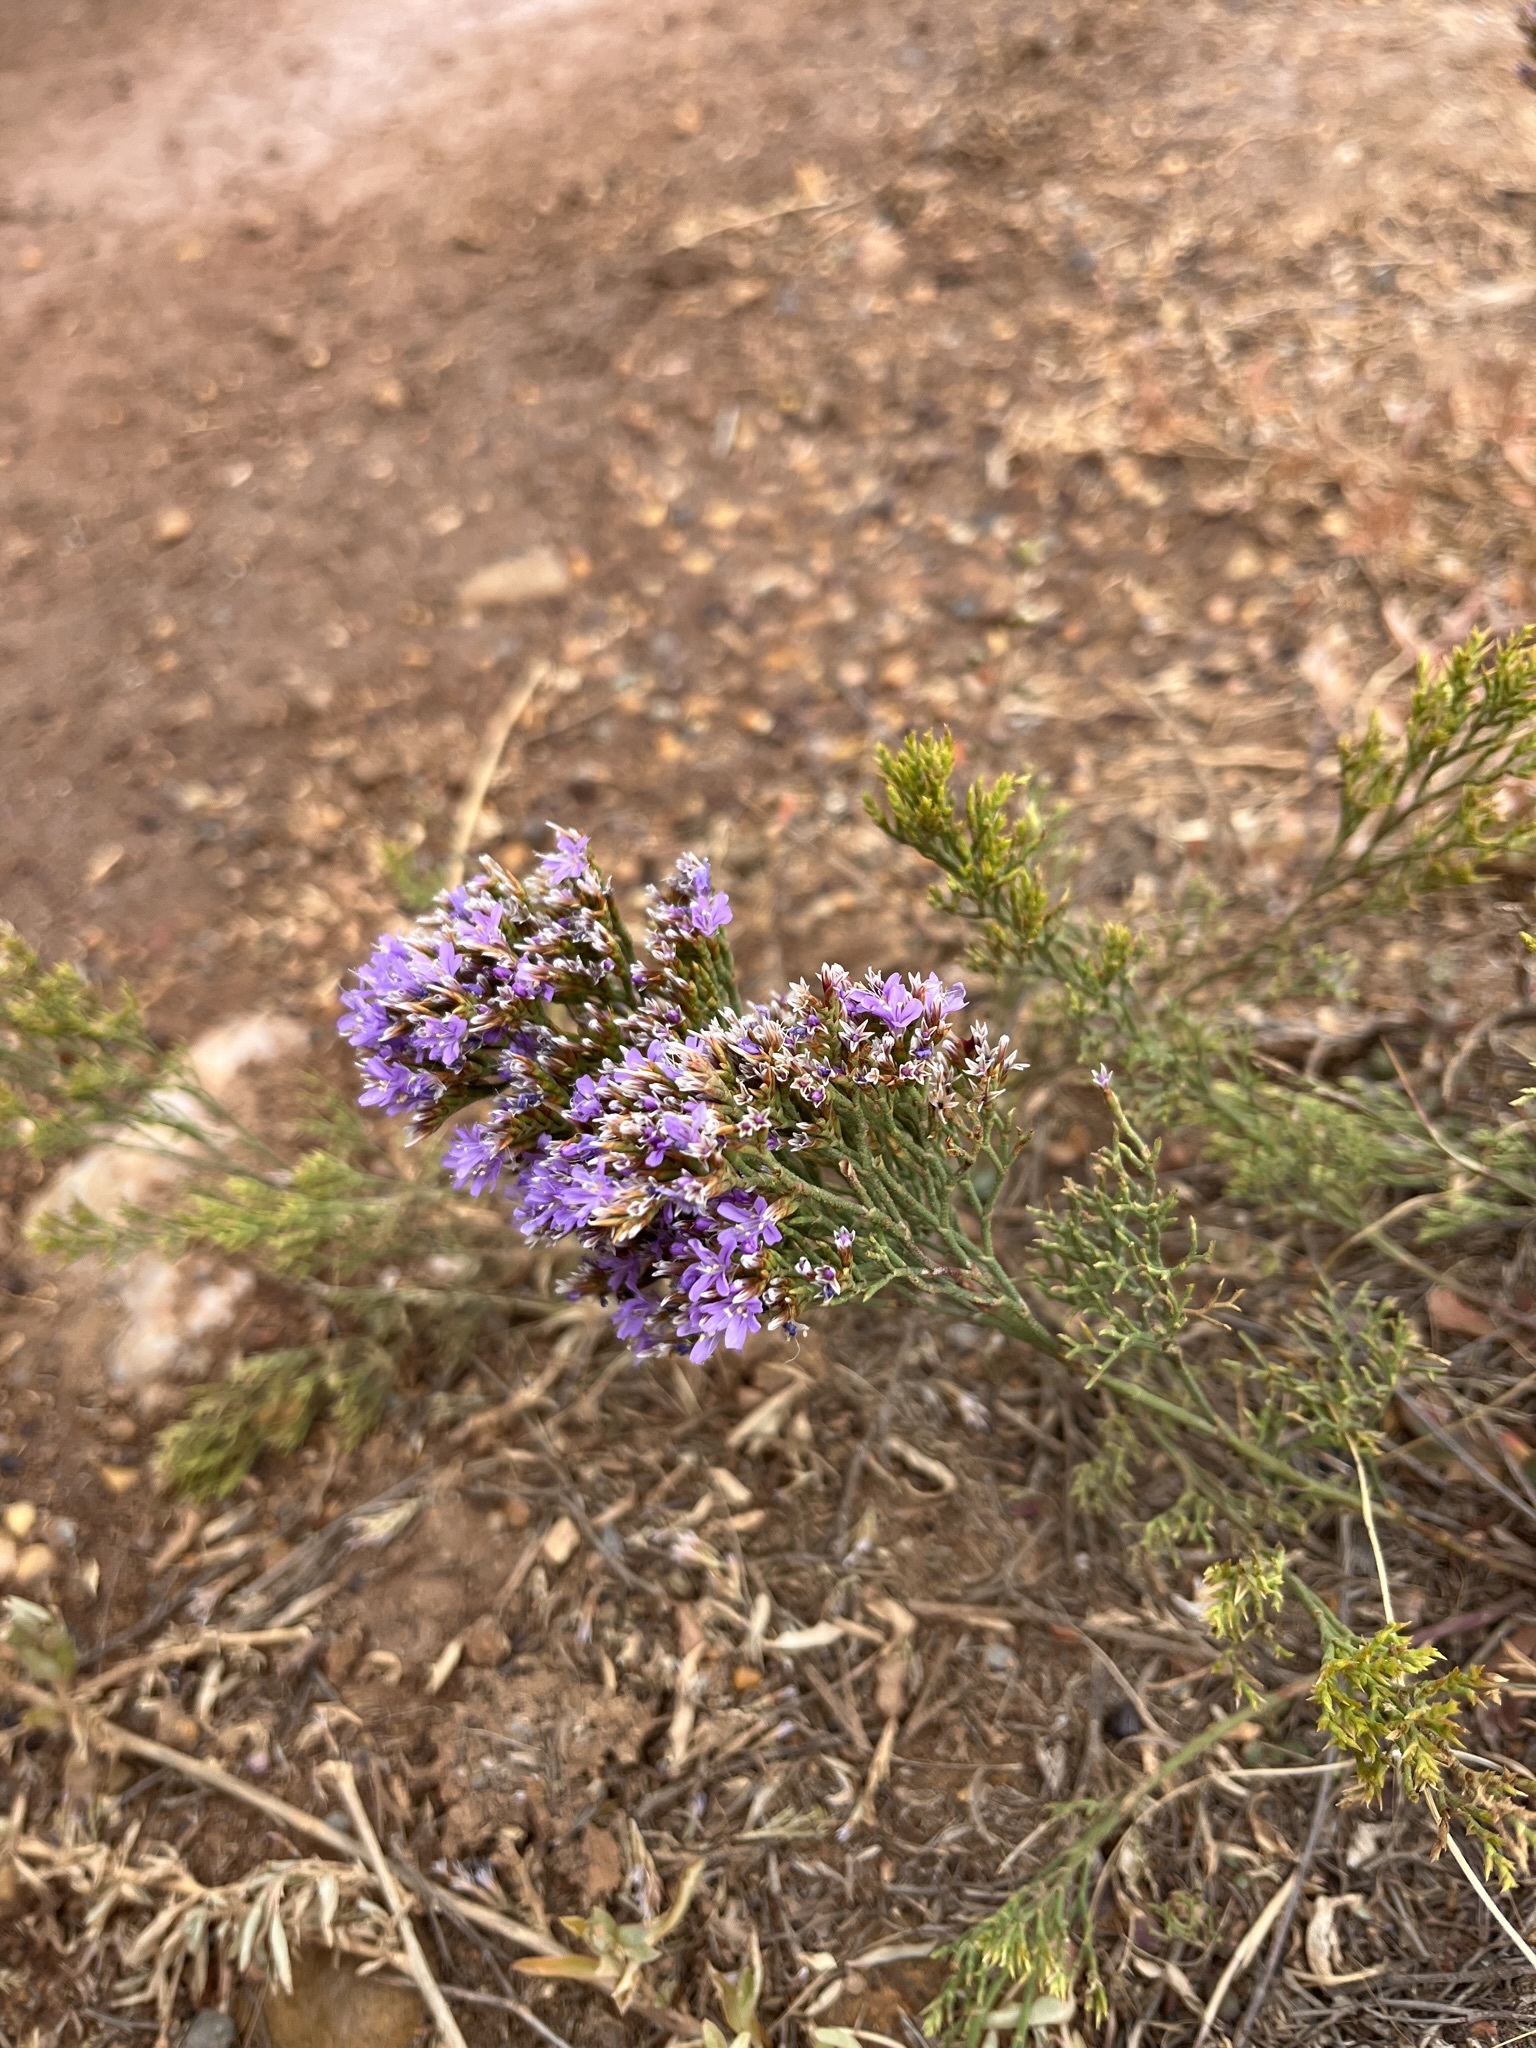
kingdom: Plantae
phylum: Tracheophyta
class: Magnoliopsida
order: Caryophyllales
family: Plumbaginaceae
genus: Limonium
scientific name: Limonium scabrum
